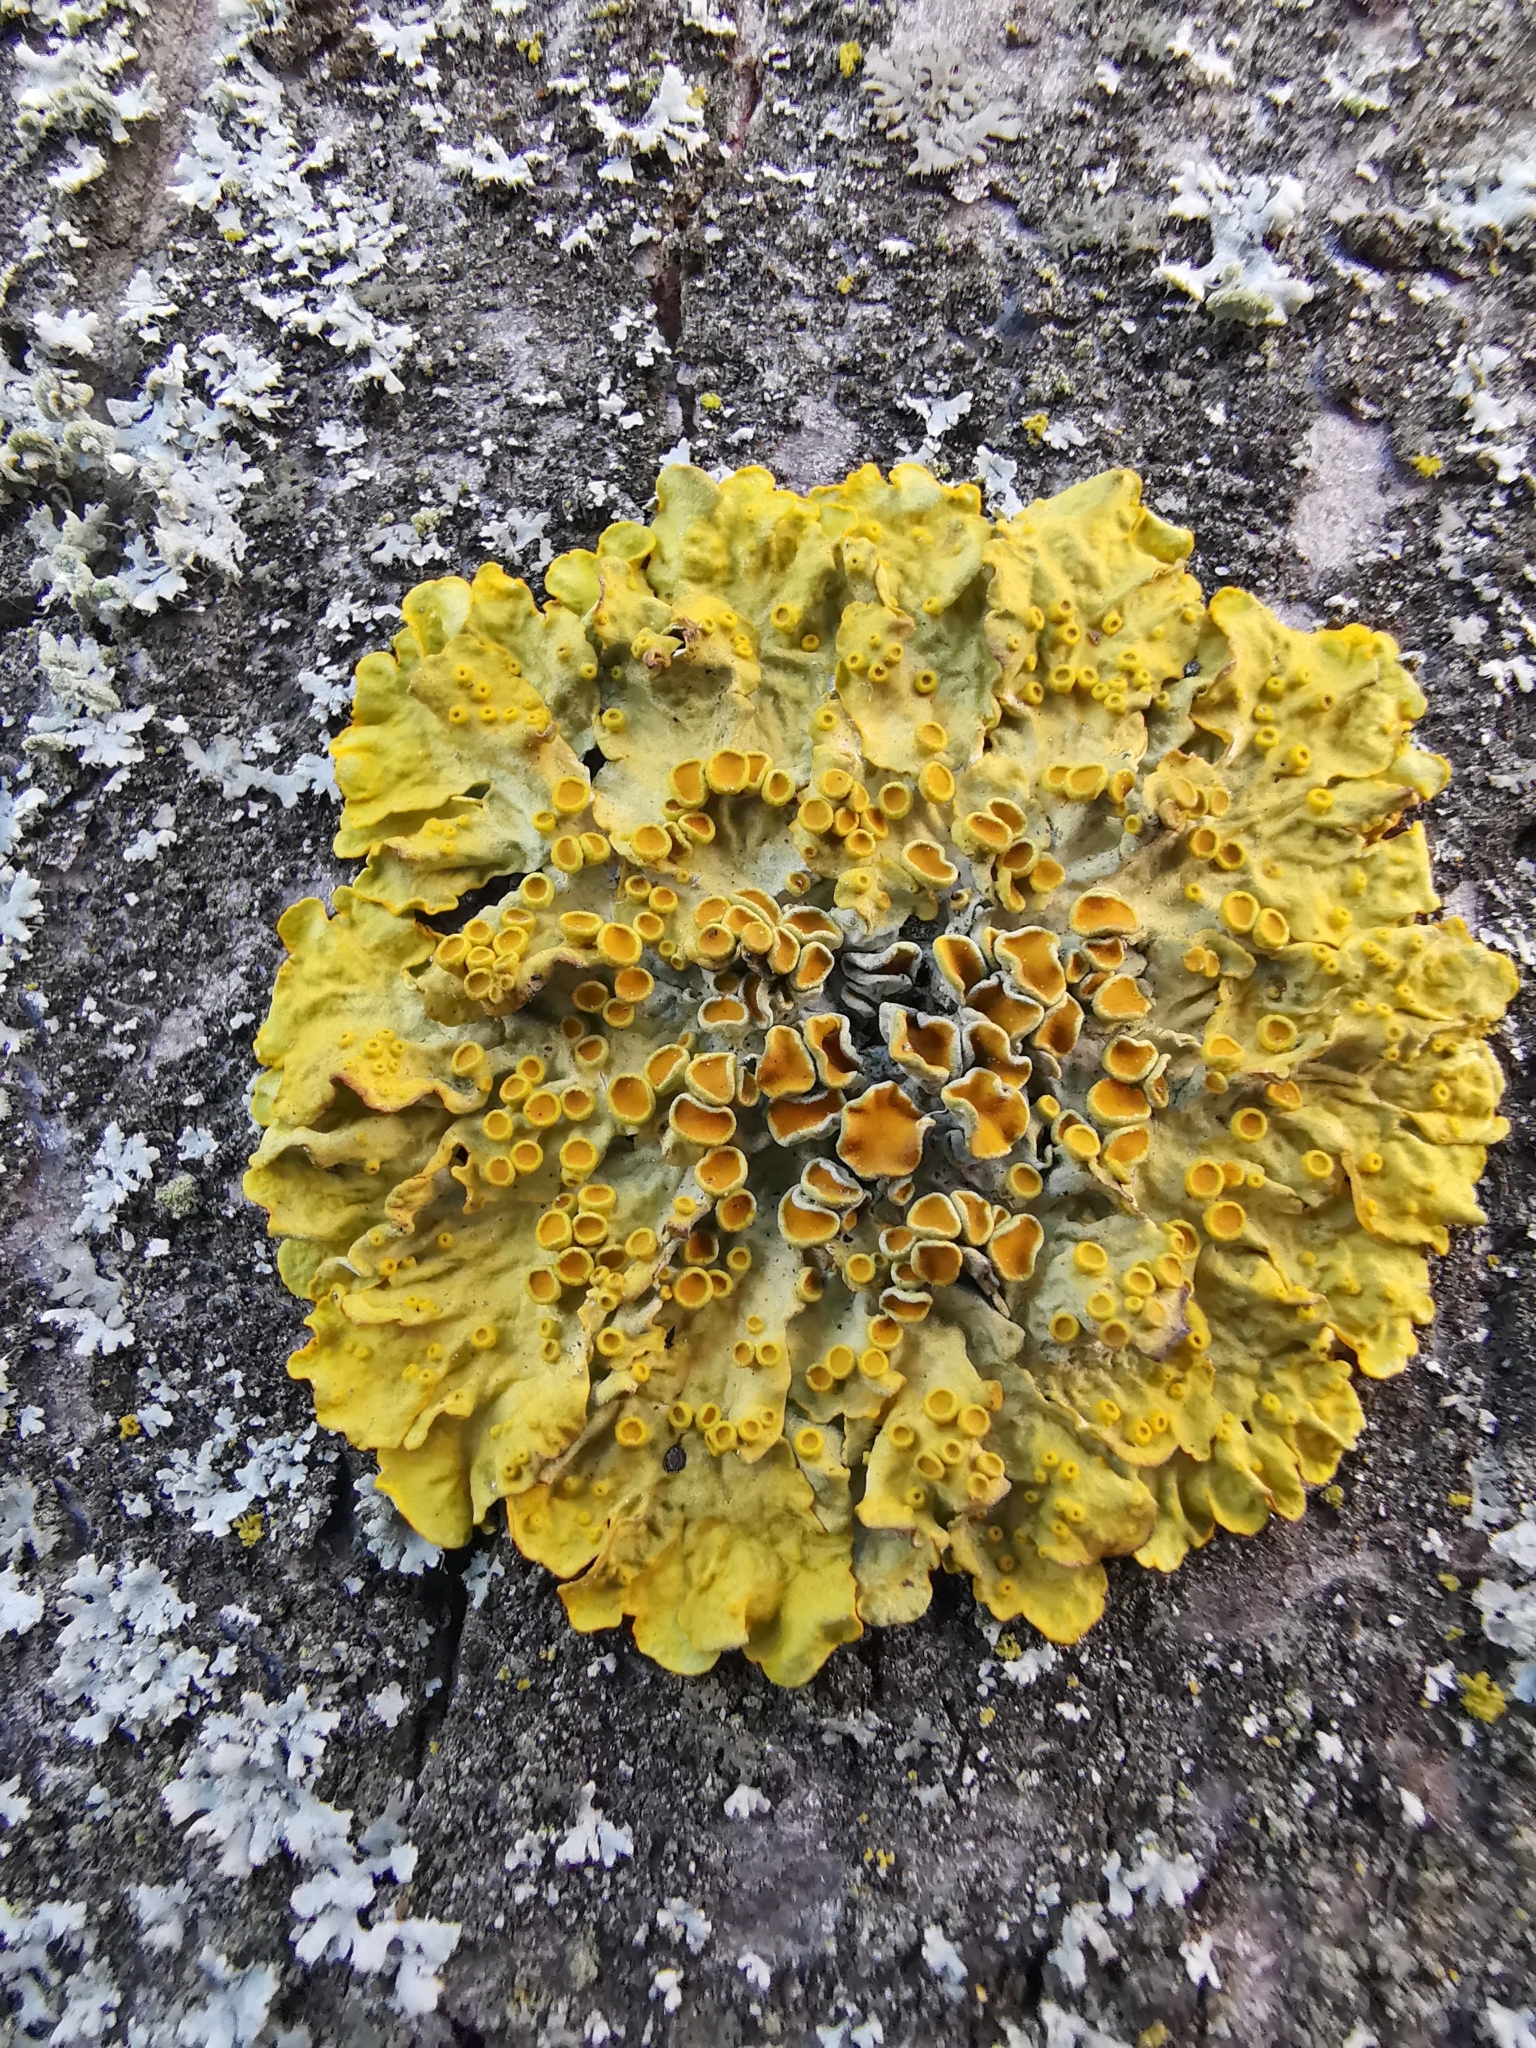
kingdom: Fungi
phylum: Ascomycota
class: Lecanoromycetes
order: Teloschistales
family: Teloschistaceae
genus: Xanthoria
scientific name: Xanthoria parietina
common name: Common orange lichen
